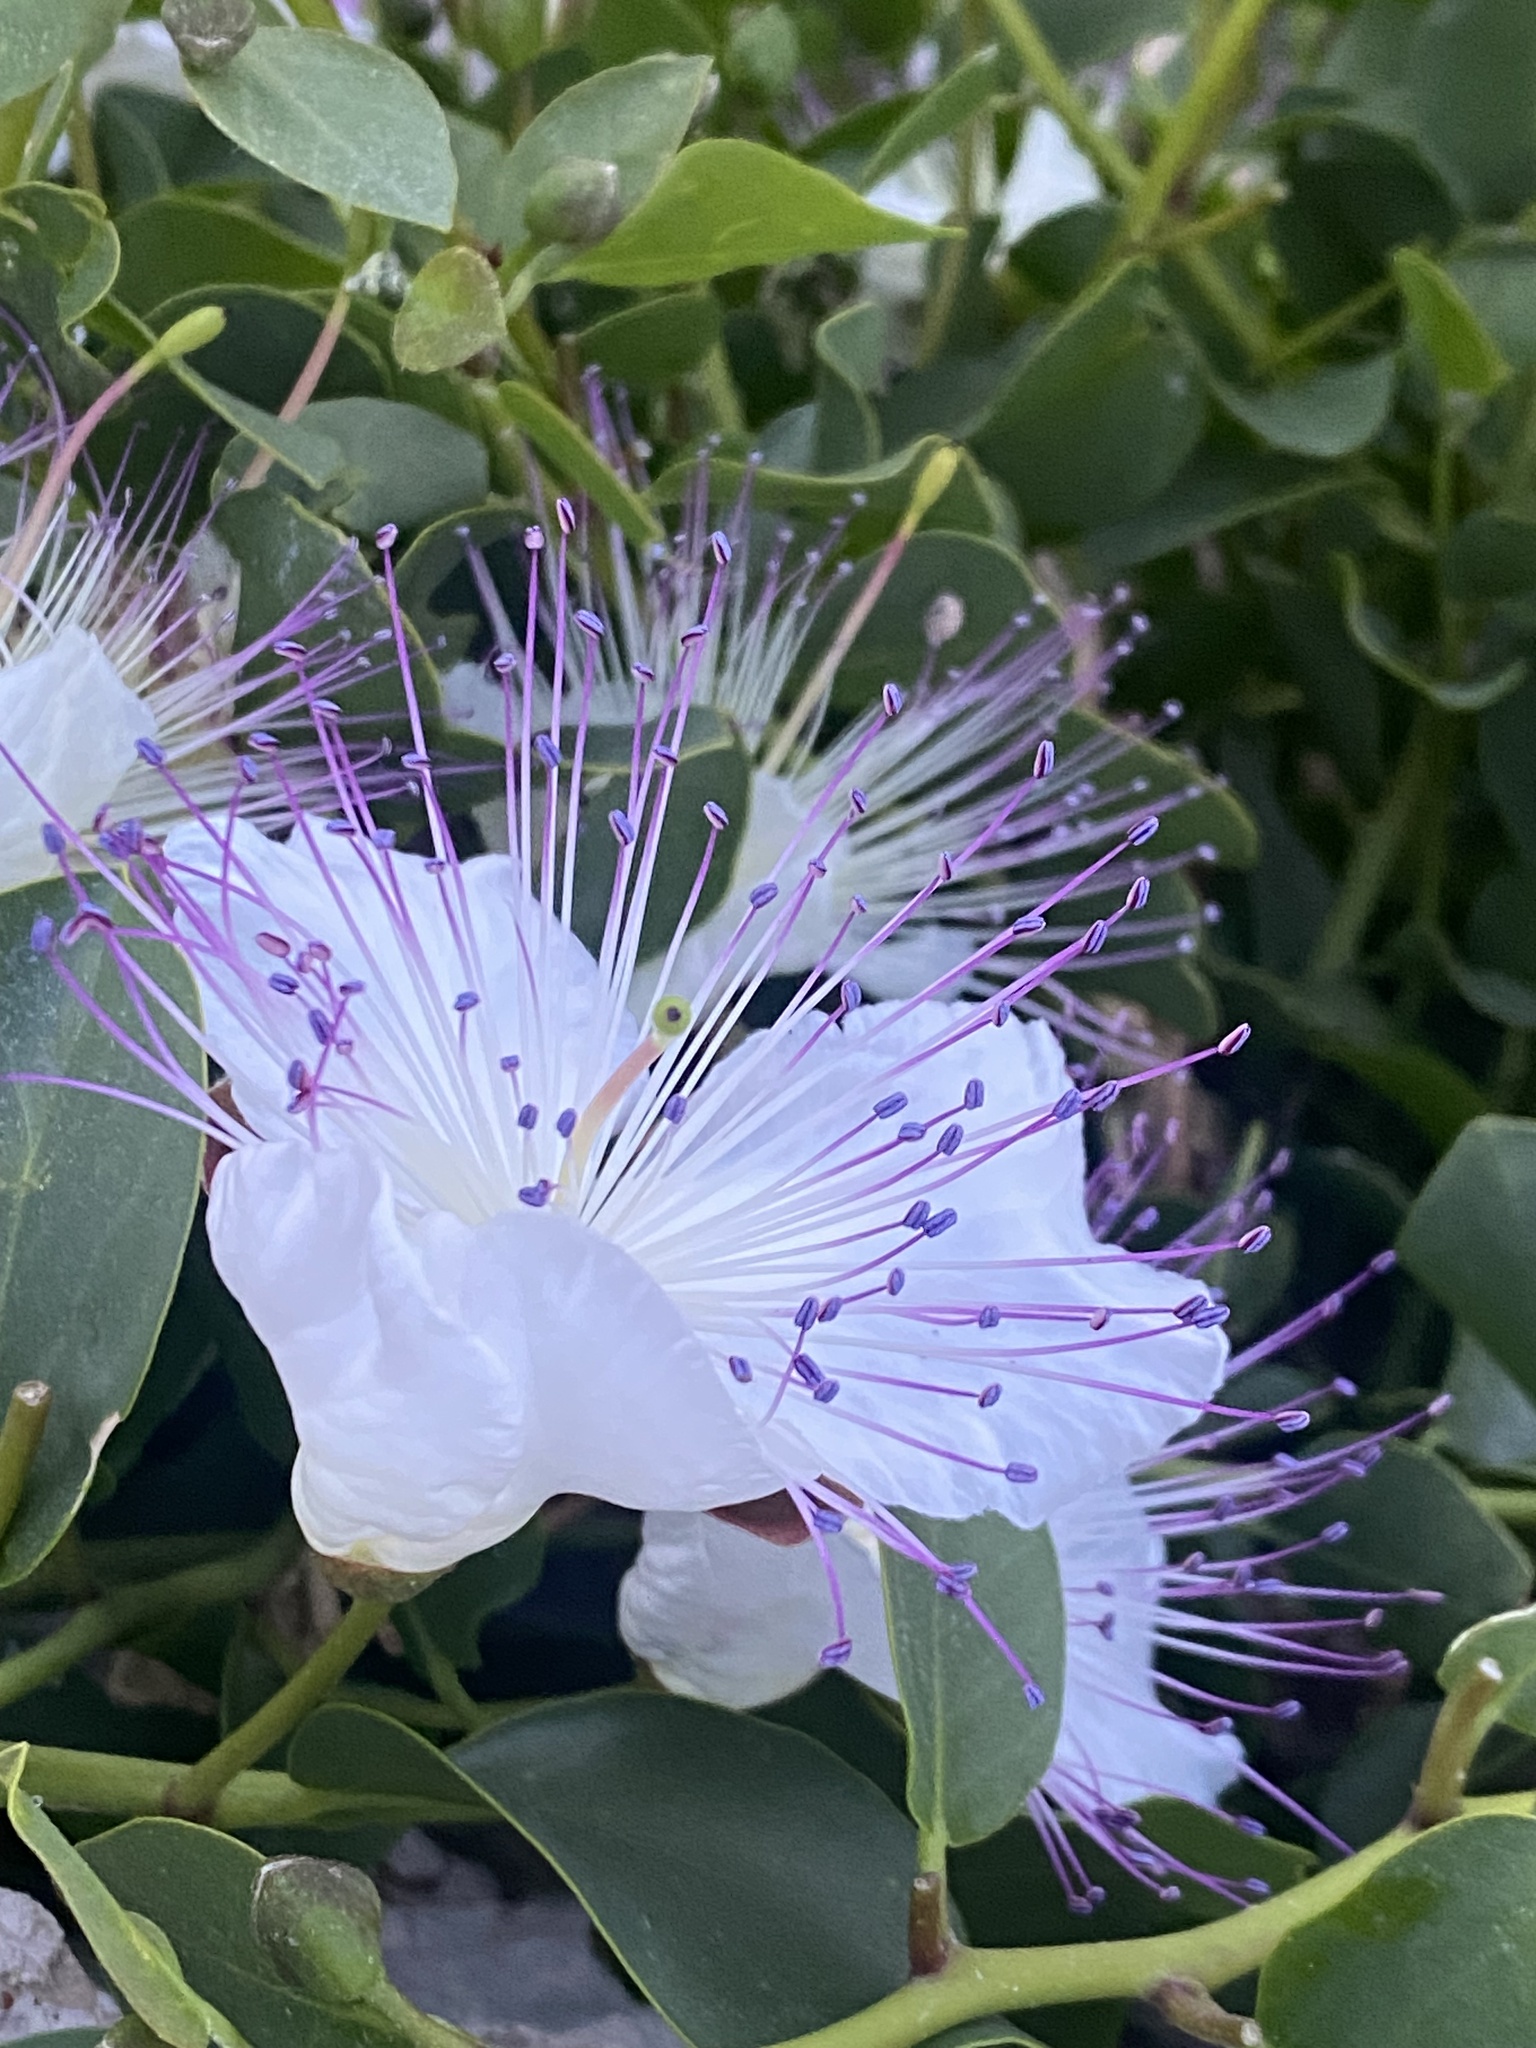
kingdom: Plantae
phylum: Tracheophyta
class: Magnoliopsida
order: Brassicales
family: Capparaceae
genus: Capparis
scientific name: Capparis orientalis
